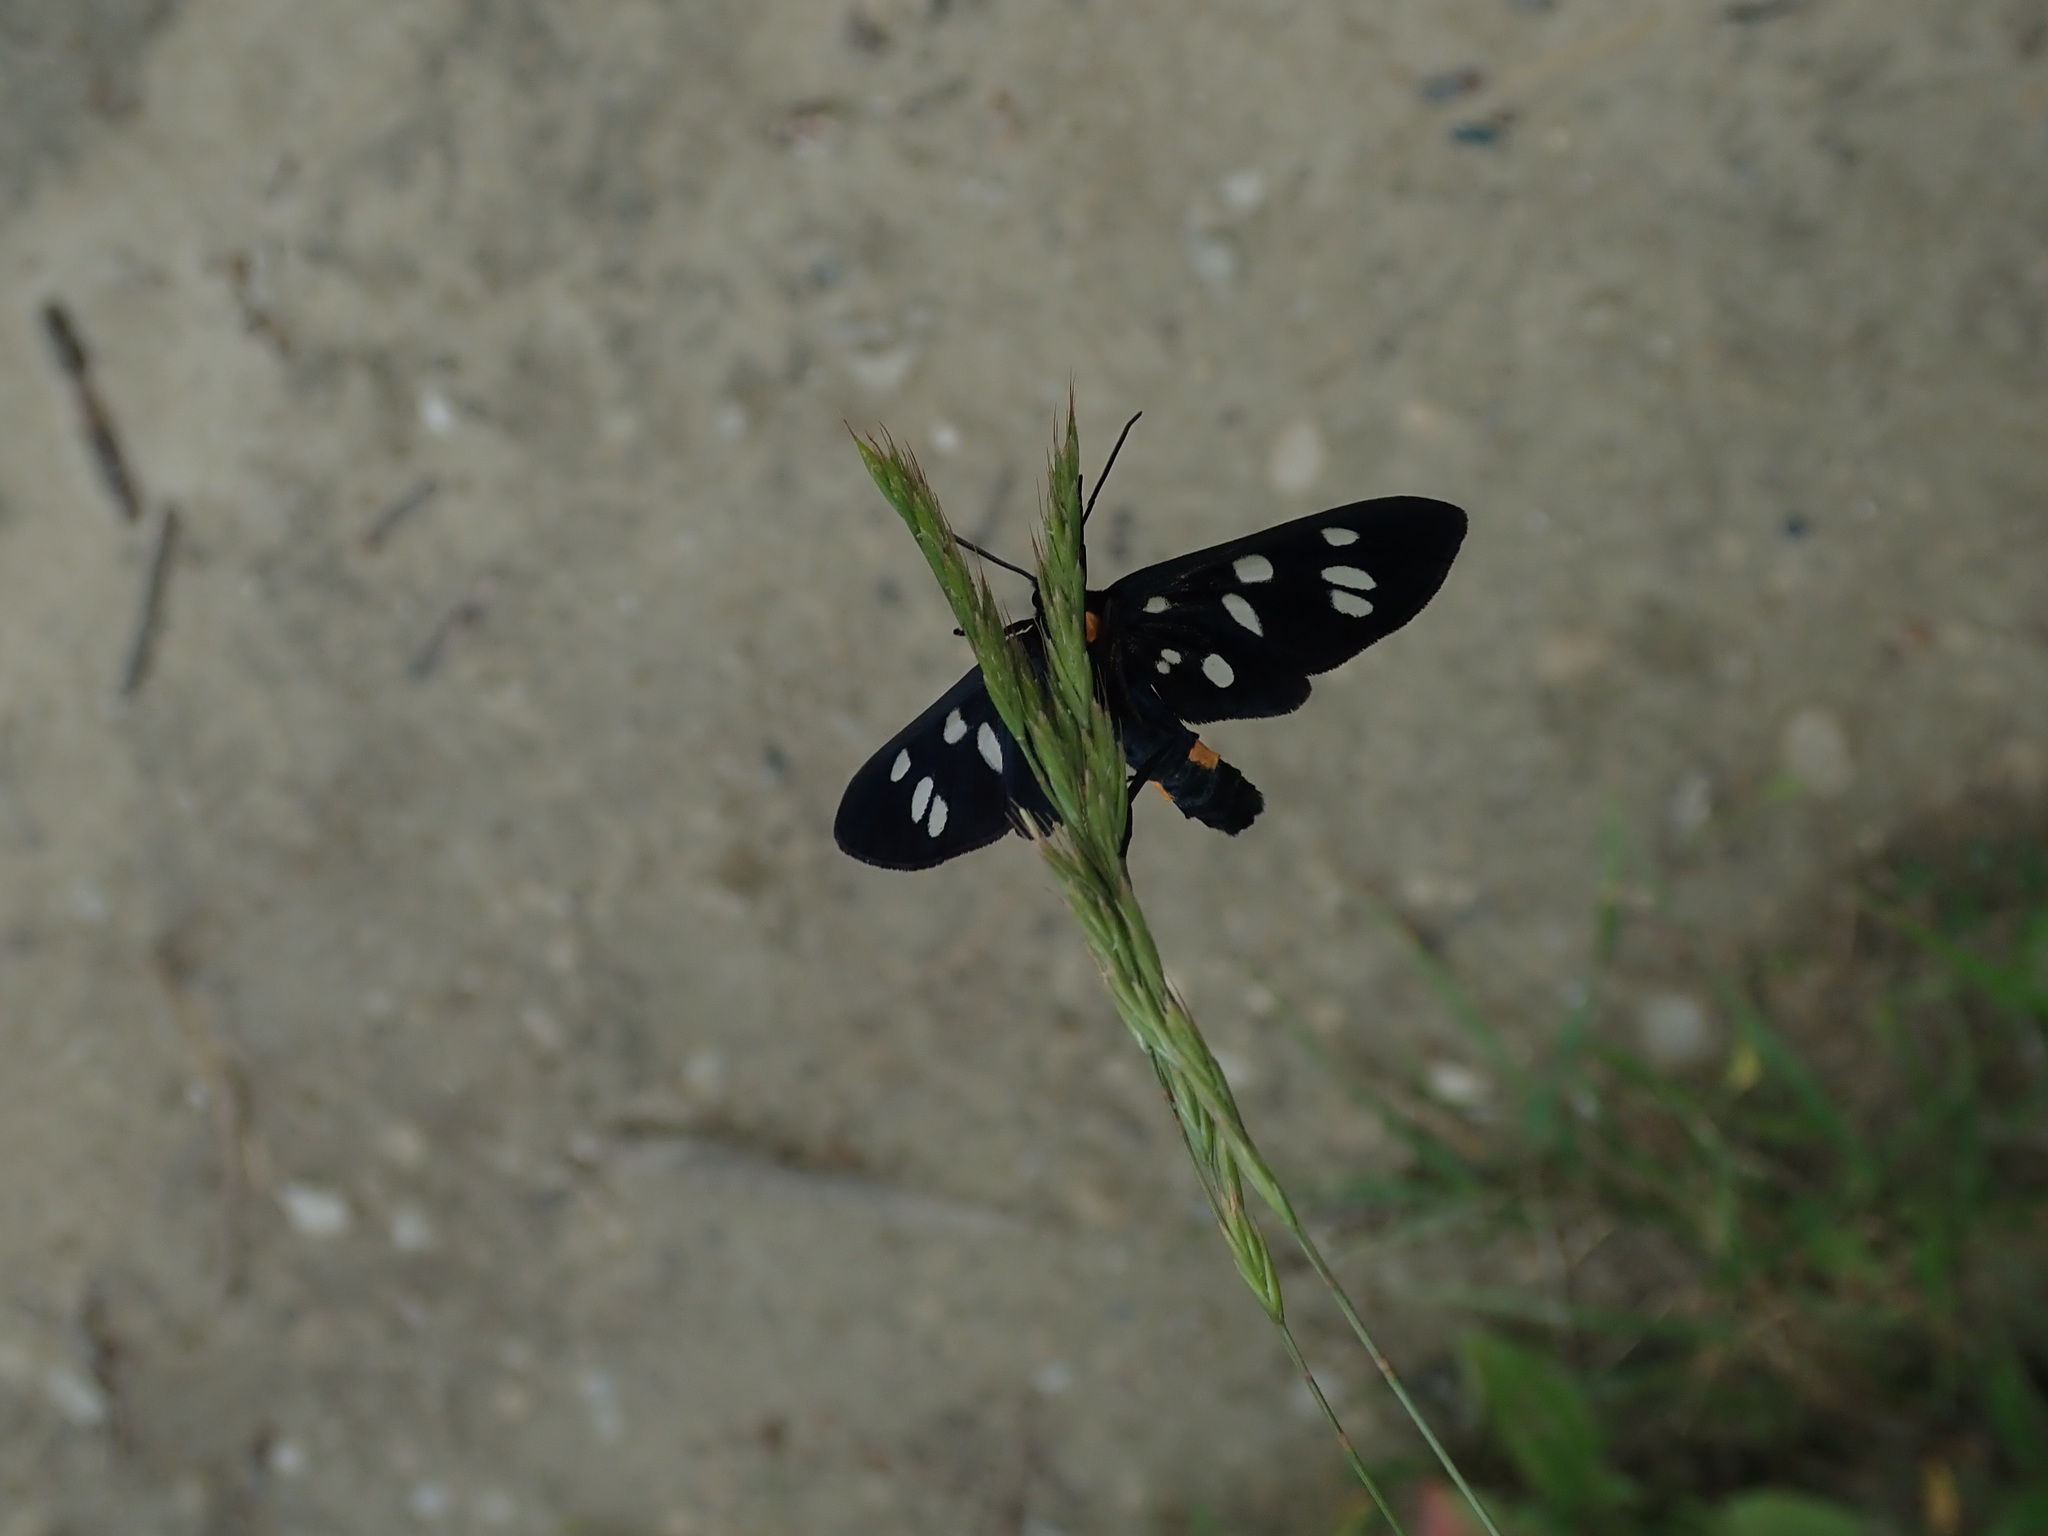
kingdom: Animalia
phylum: Arthropoda
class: Insecta
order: Lepidoptera
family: Erebidae
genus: Amata
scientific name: Amata phegea
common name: Nine-spotted
